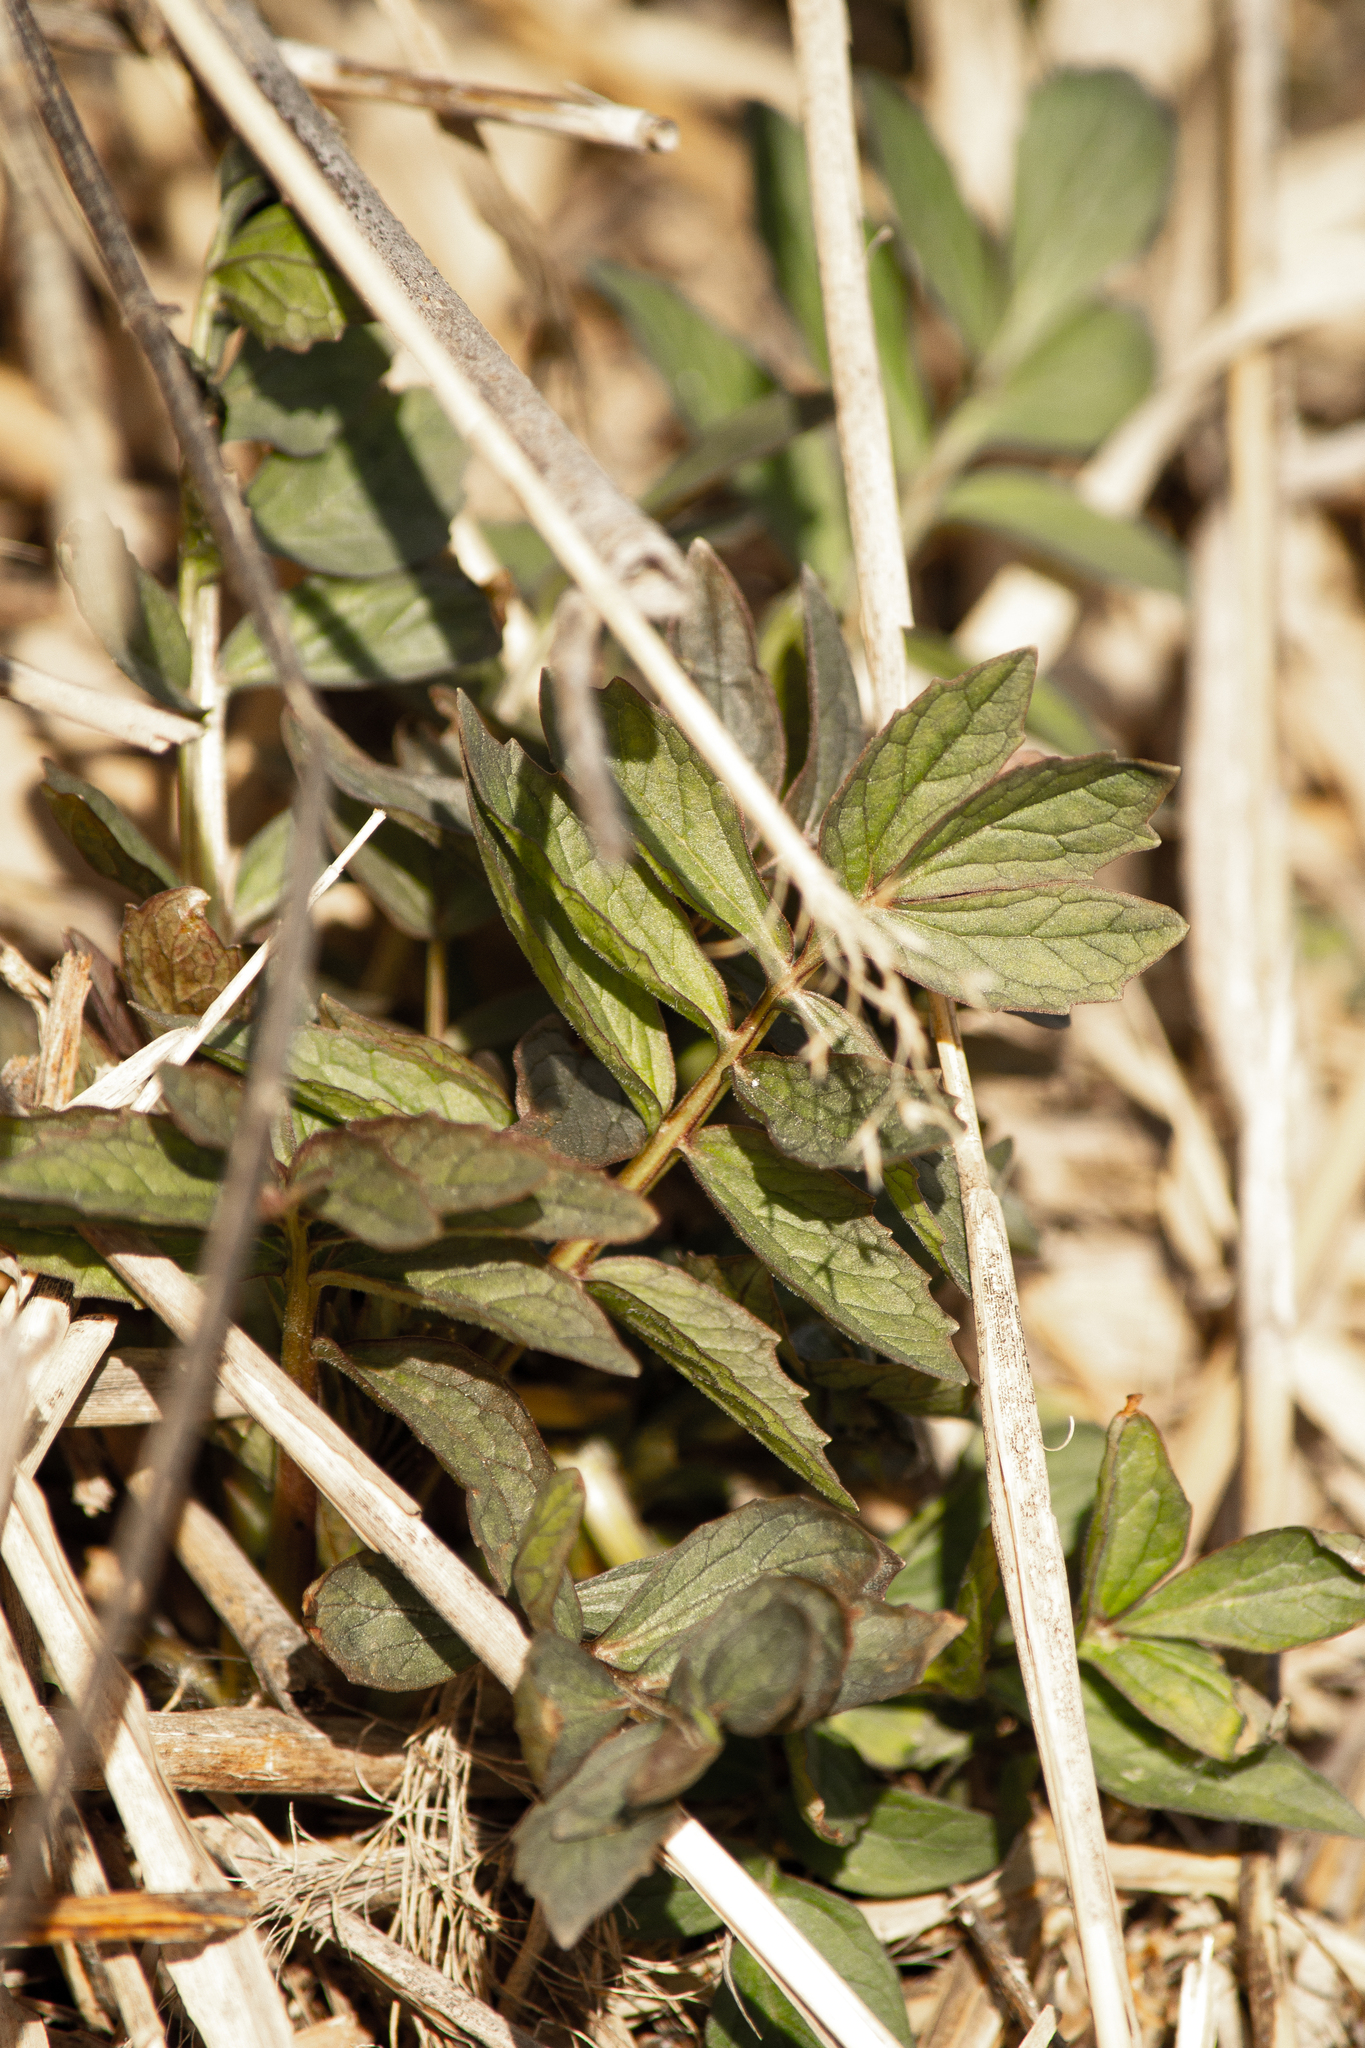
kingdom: Plantae
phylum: Tracheophyta
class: Magnoliopsida
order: Dipsacales
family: Caprifoliaceae
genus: Valeriana
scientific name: Valeriana wolgensis
